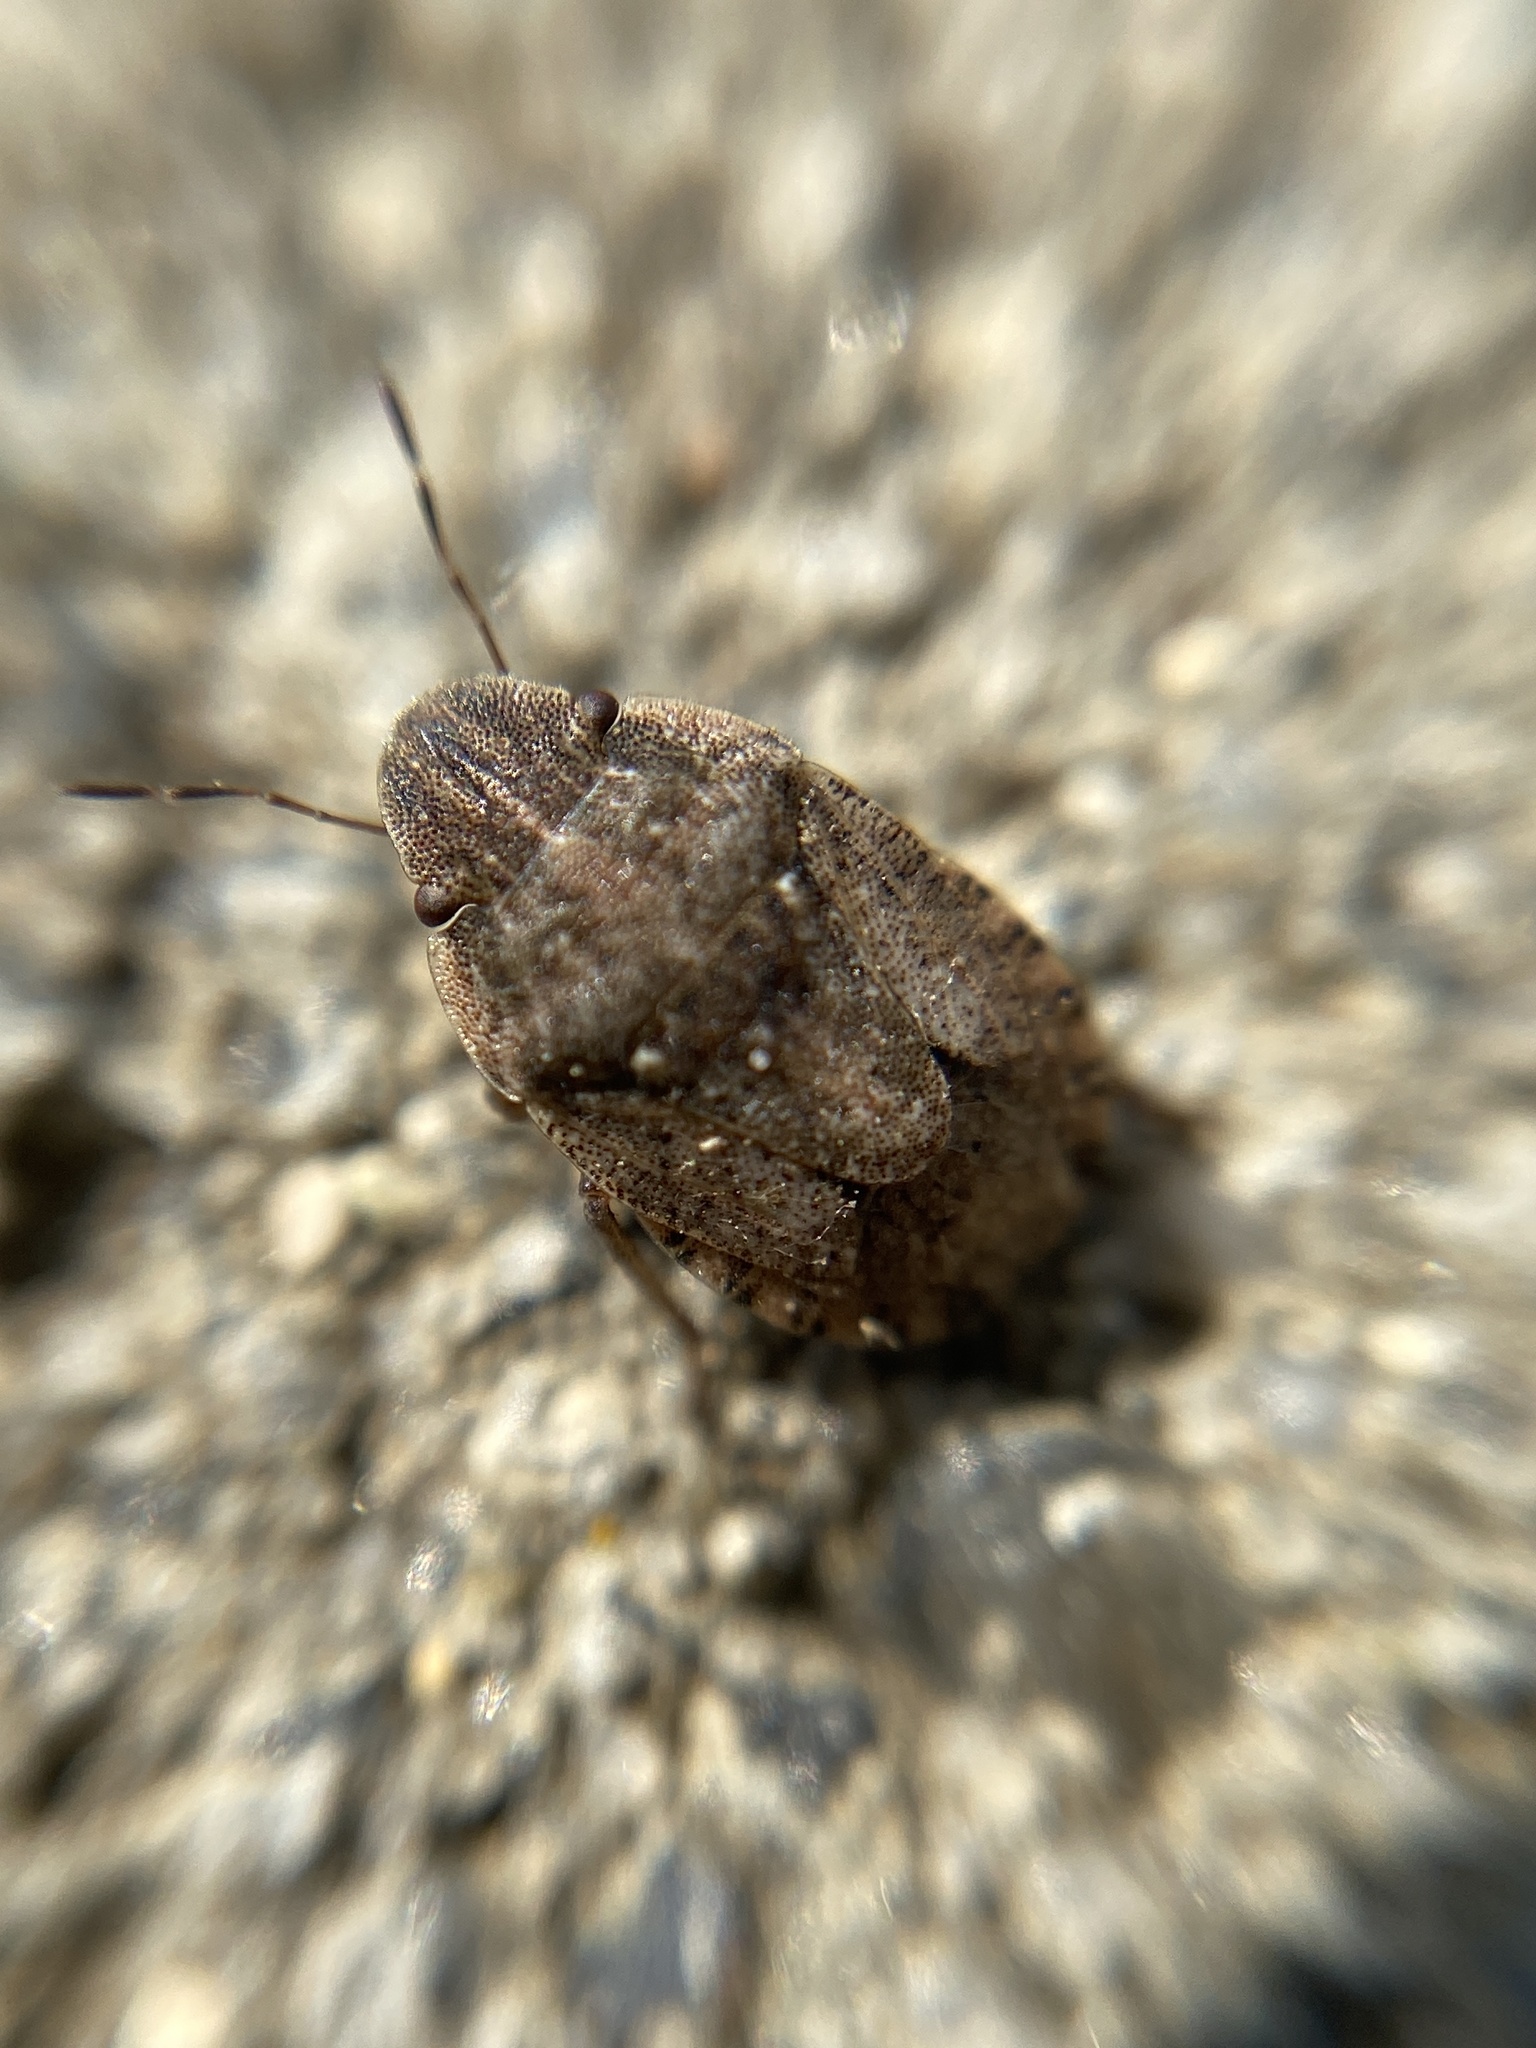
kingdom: Animalia
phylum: Arthropoda
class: Insecta
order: Hemiptera
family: Pentatomidae
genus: Sciocoris
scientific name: Sciocoris cursitans
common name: Sandrunner
